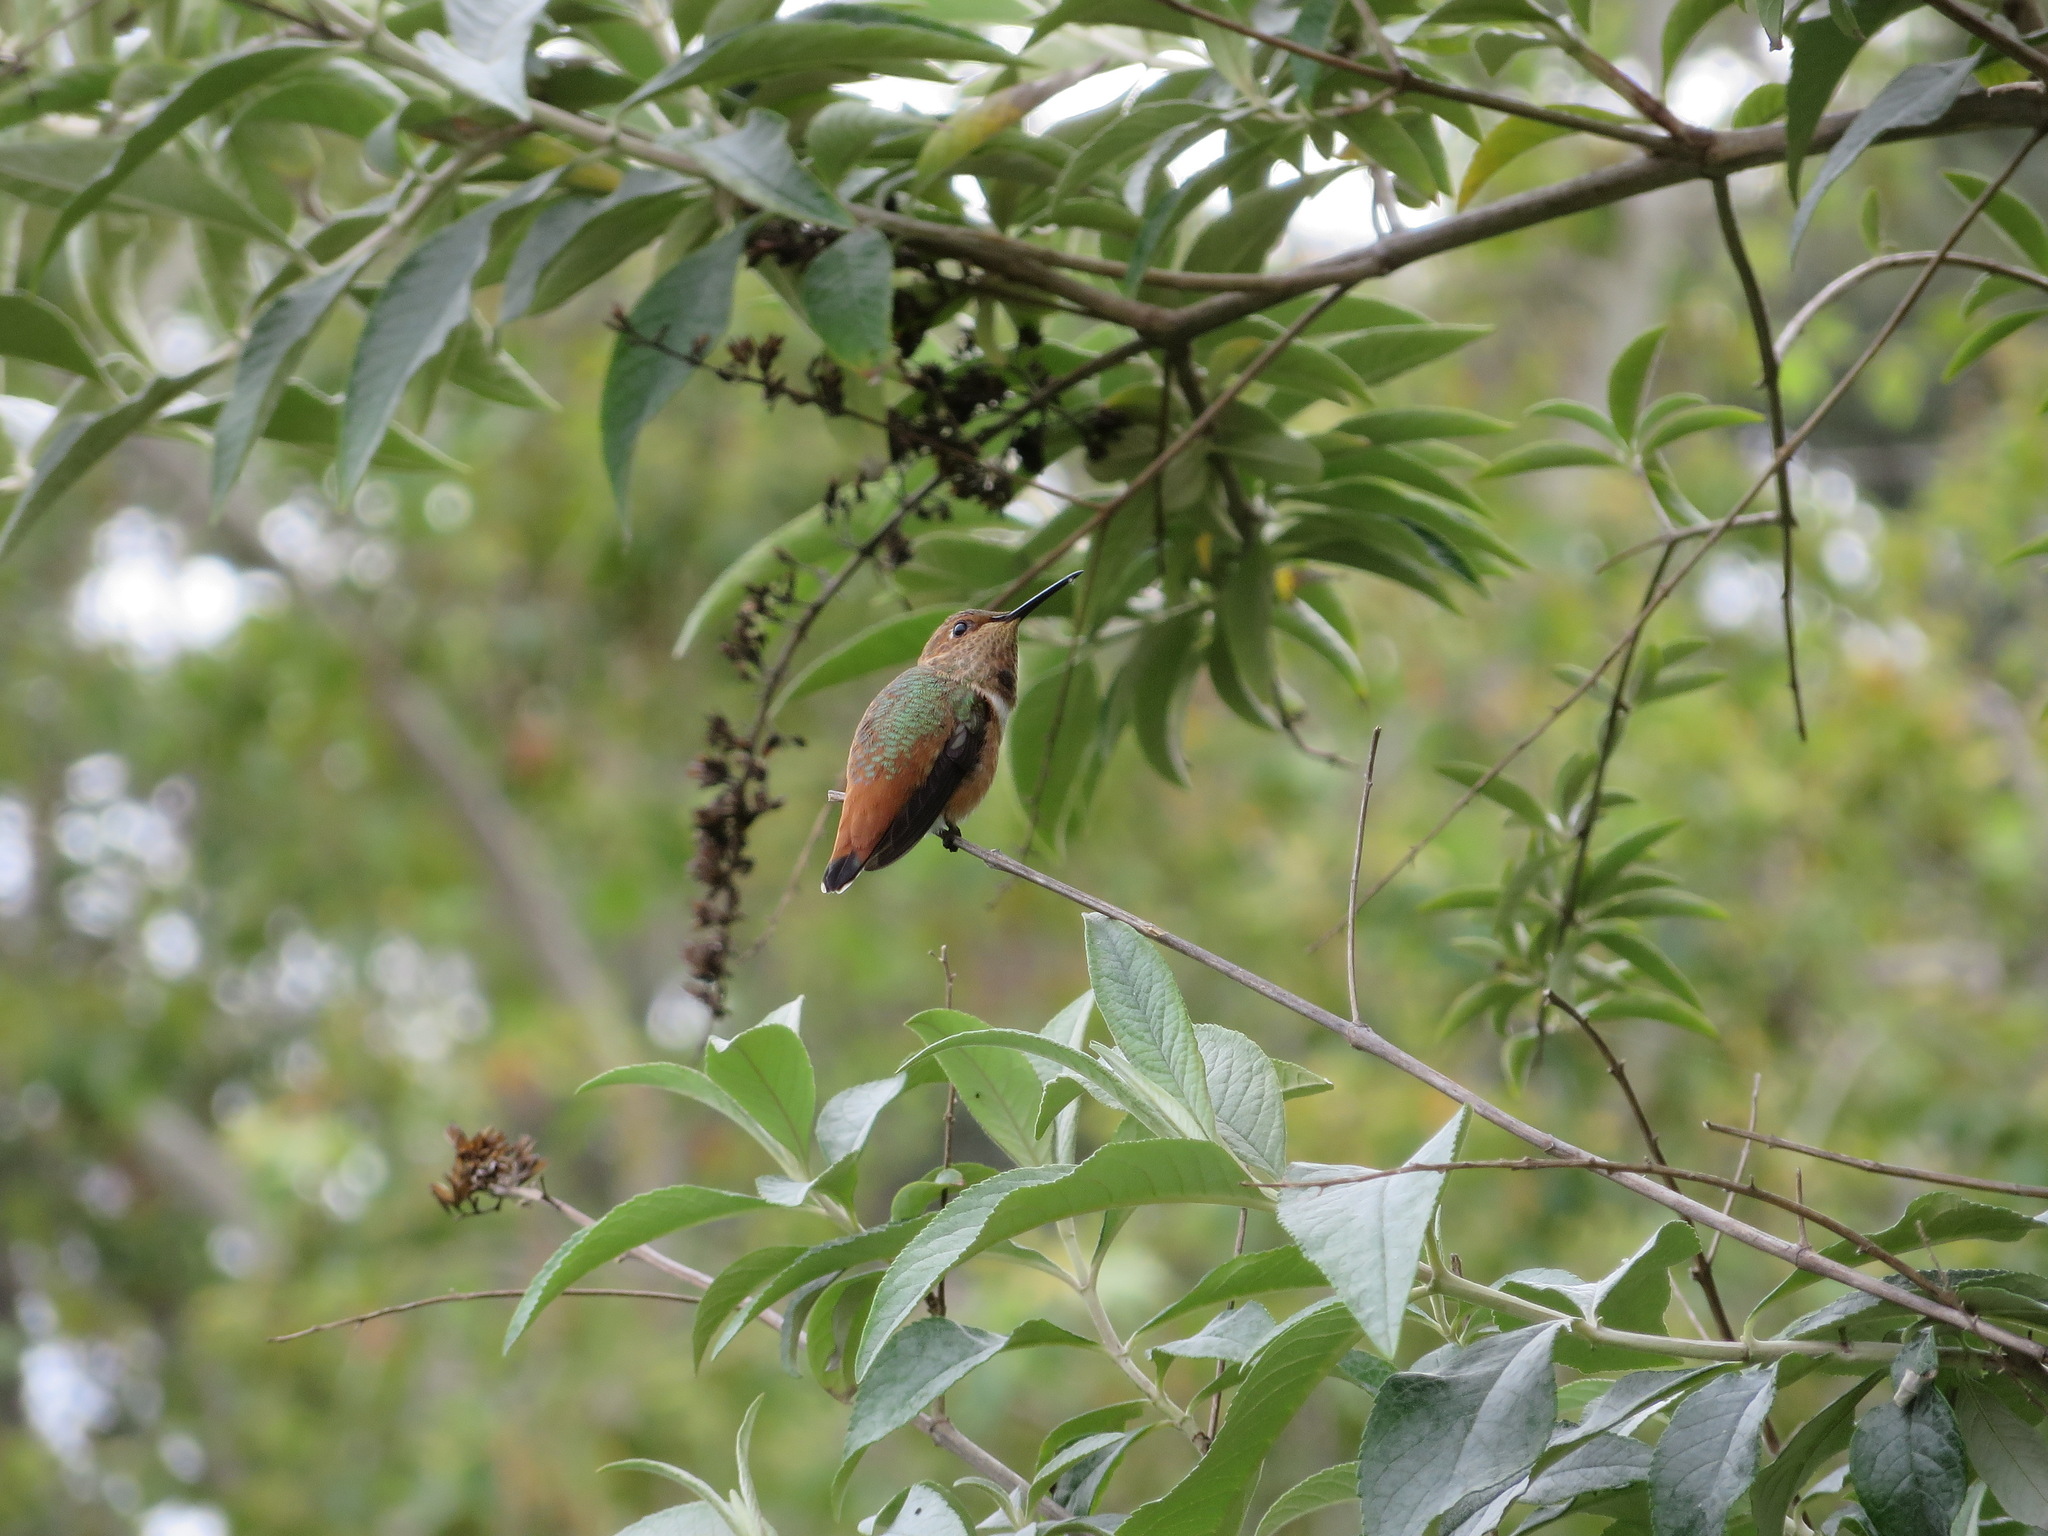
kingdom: Animalia
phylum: Chordata
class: Aves
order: Apodiformes
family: Trochilidae
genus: Selasphorus
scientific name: Selasphorus sasin
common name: Allen's hummingbird
